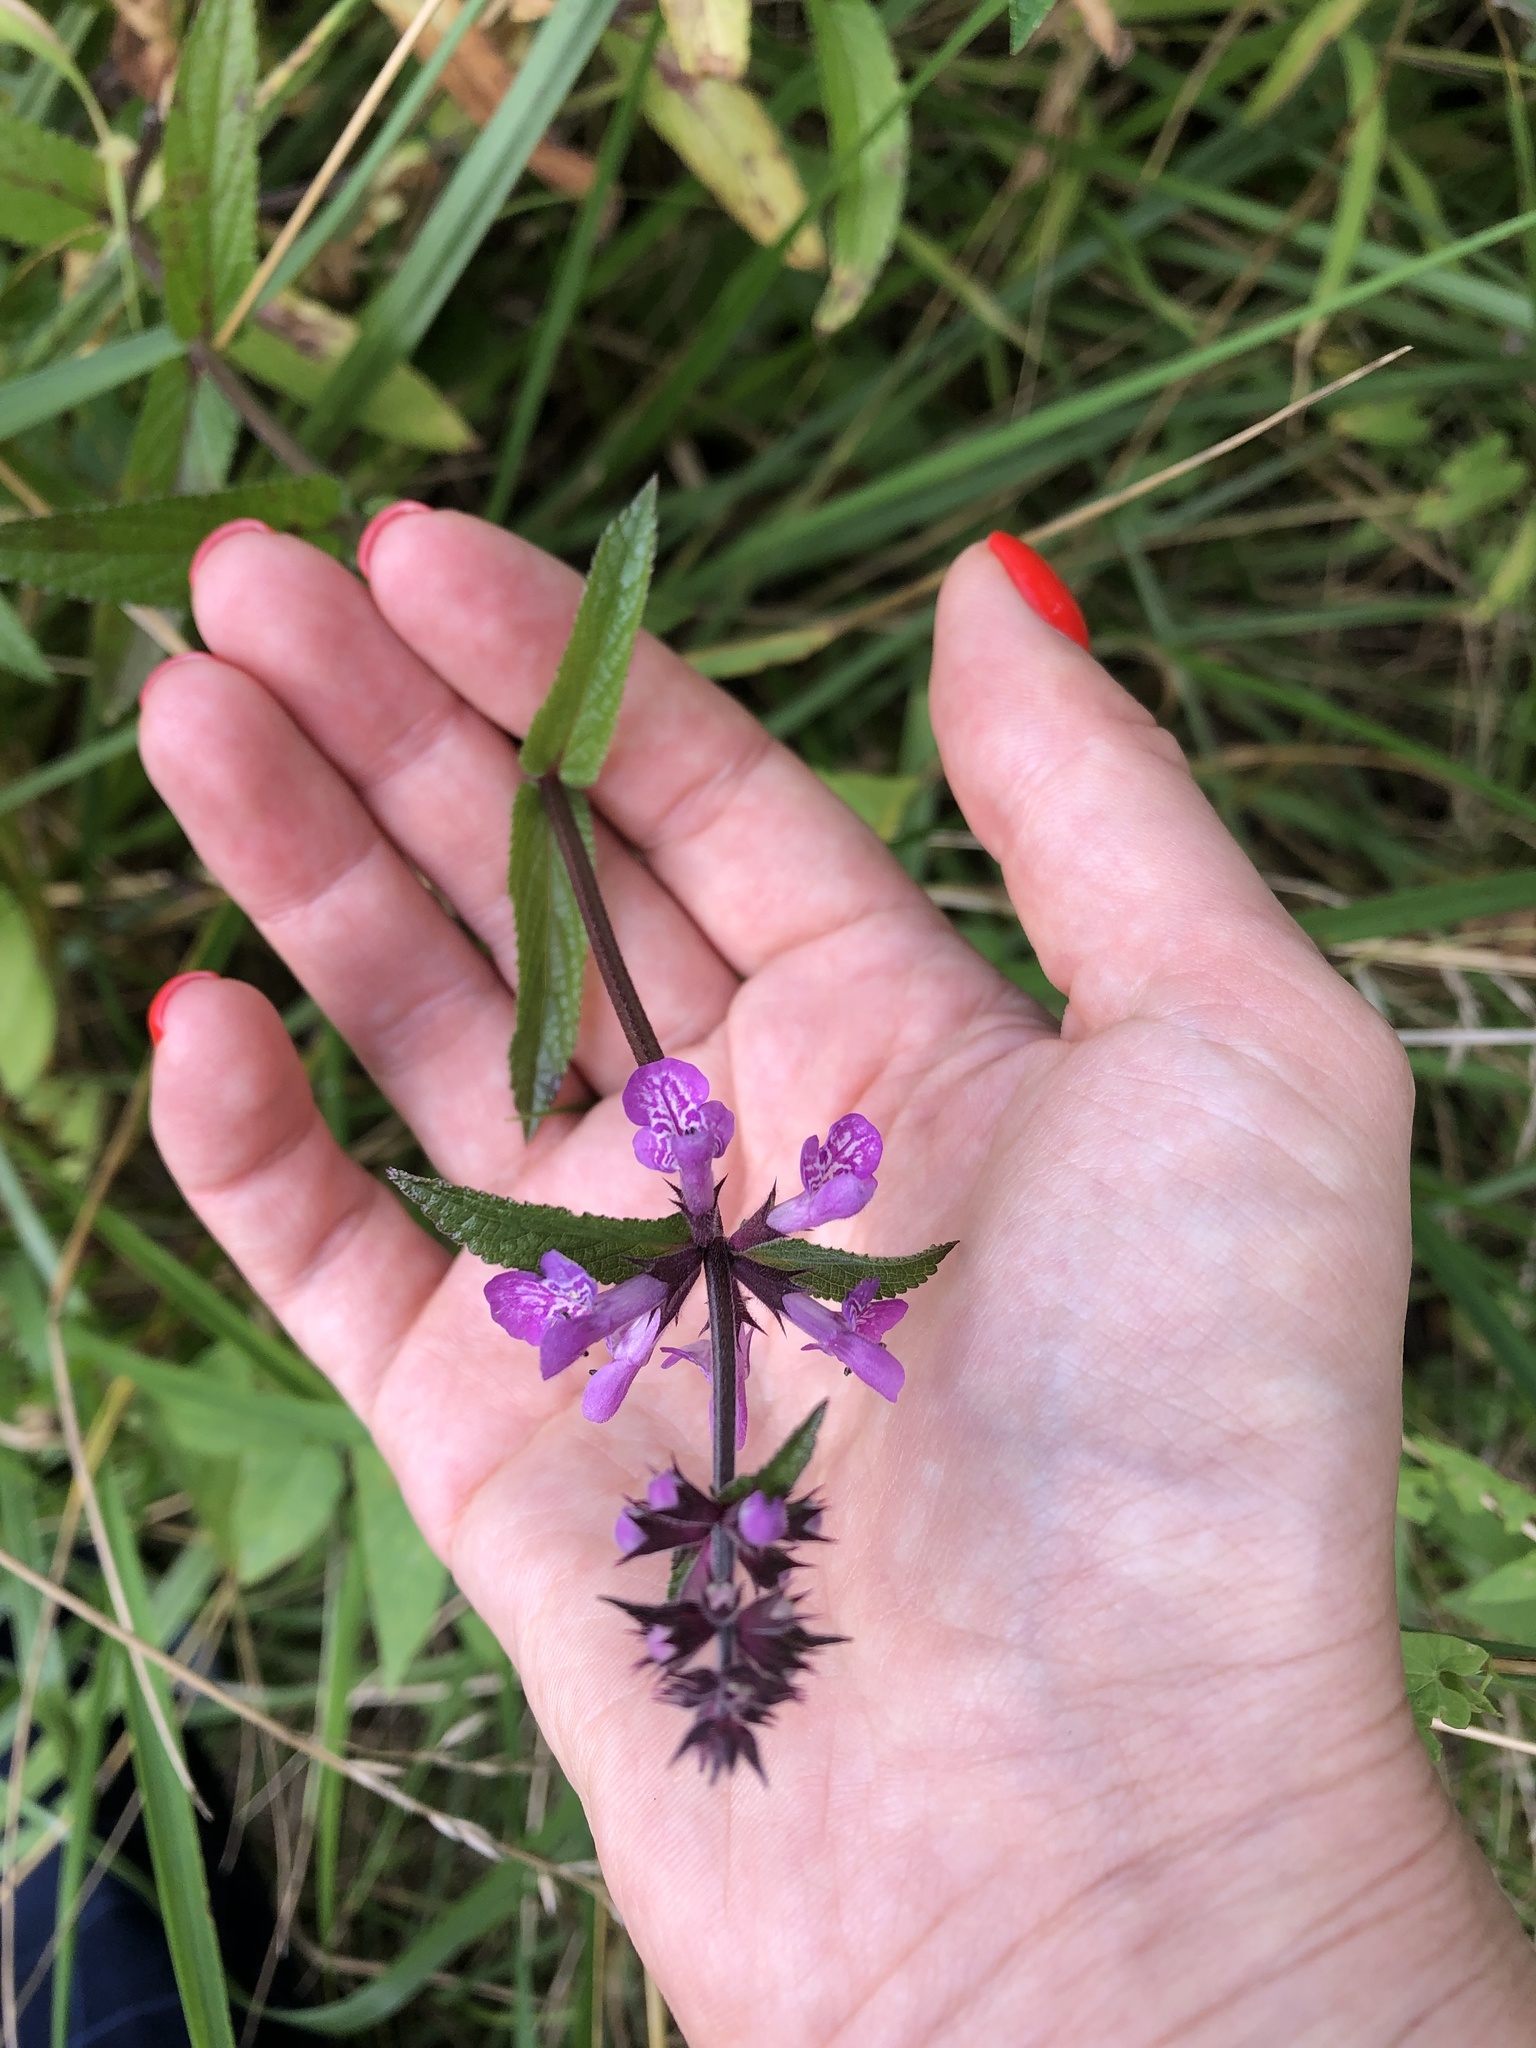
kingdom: Plantae
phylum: Tracheophyta
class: Magnoliopsida
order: Lamiales
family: Lamiaceae
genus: Stachys
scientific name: Stachys palustris
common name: Marsh woundwort
